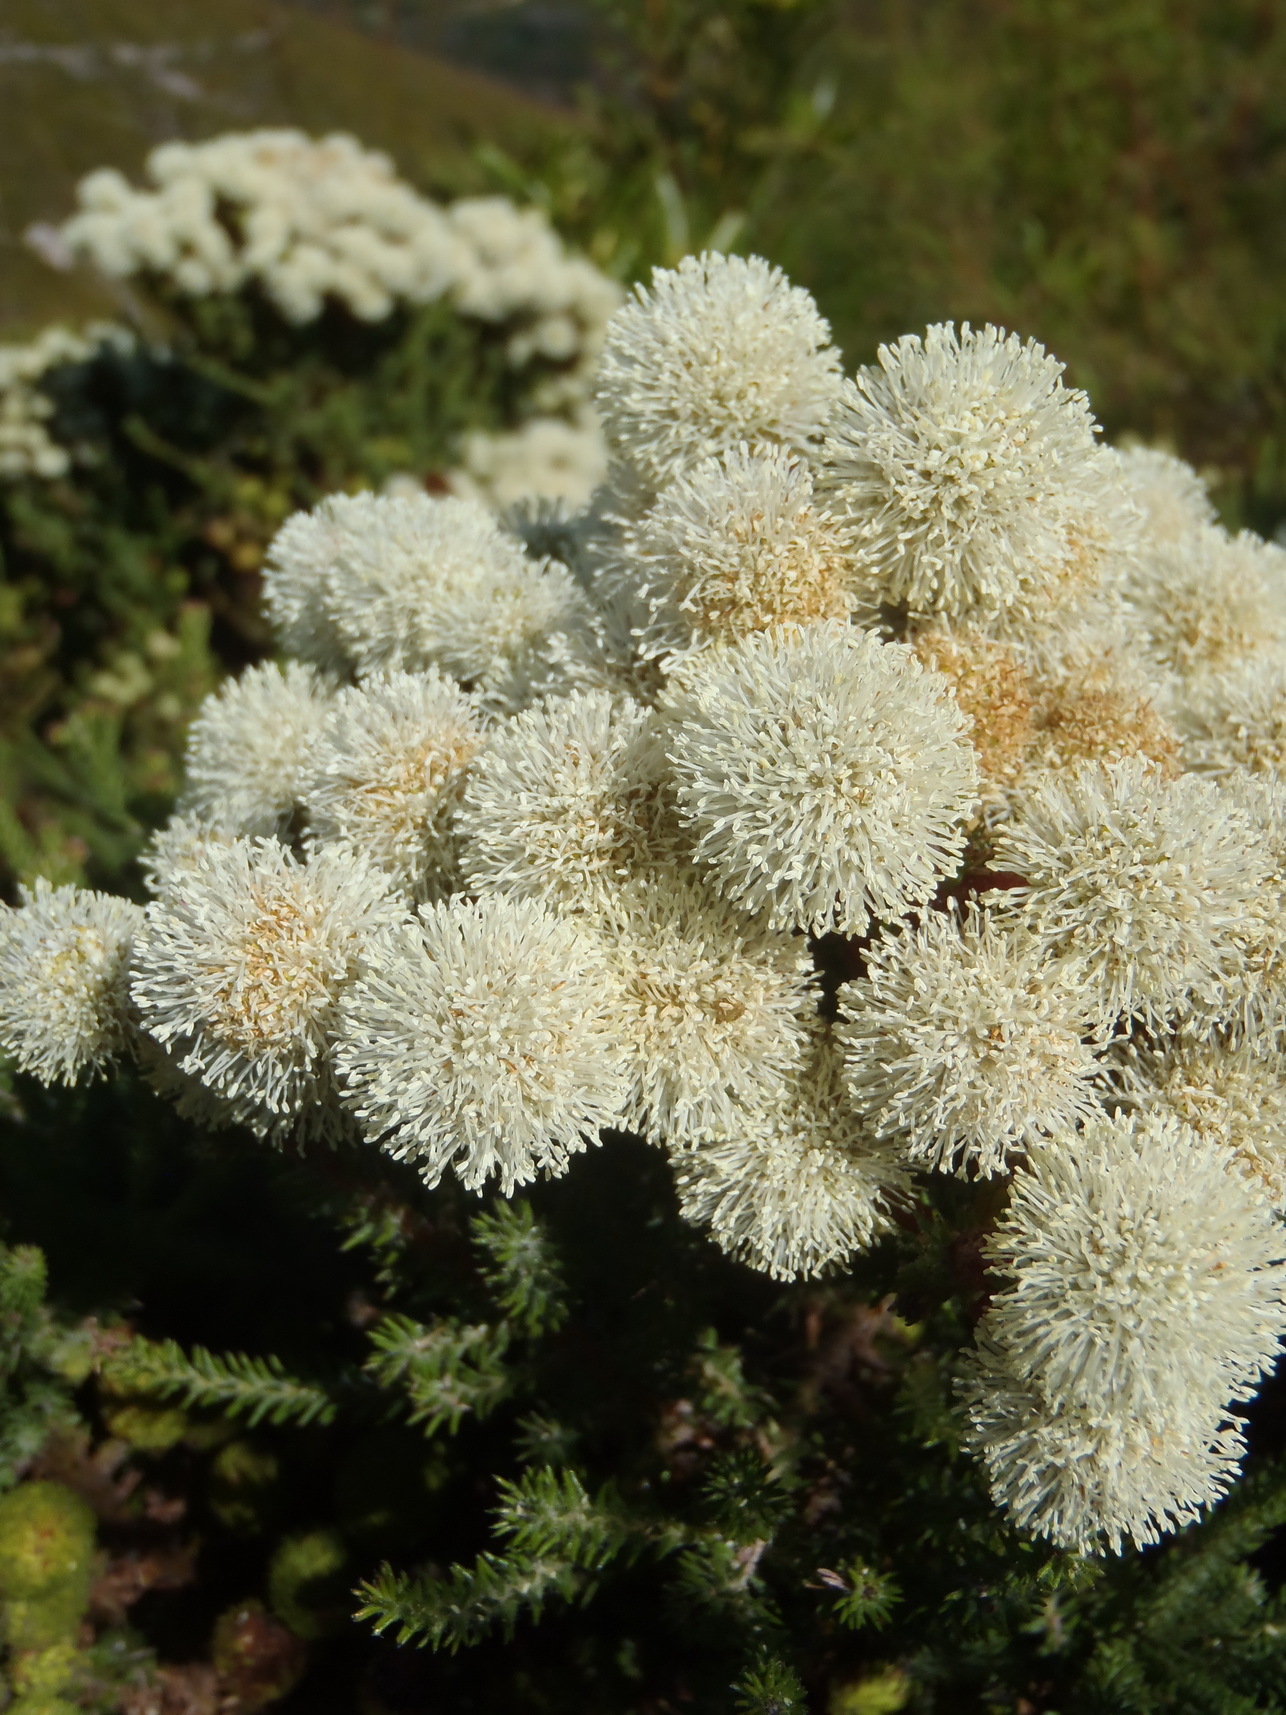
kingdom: Plantae
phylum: Tracheophyta
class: Magnoliopsida
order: Bruniales
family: Bruniaceae
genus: Berzelia
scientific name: Berzelia intermedia
